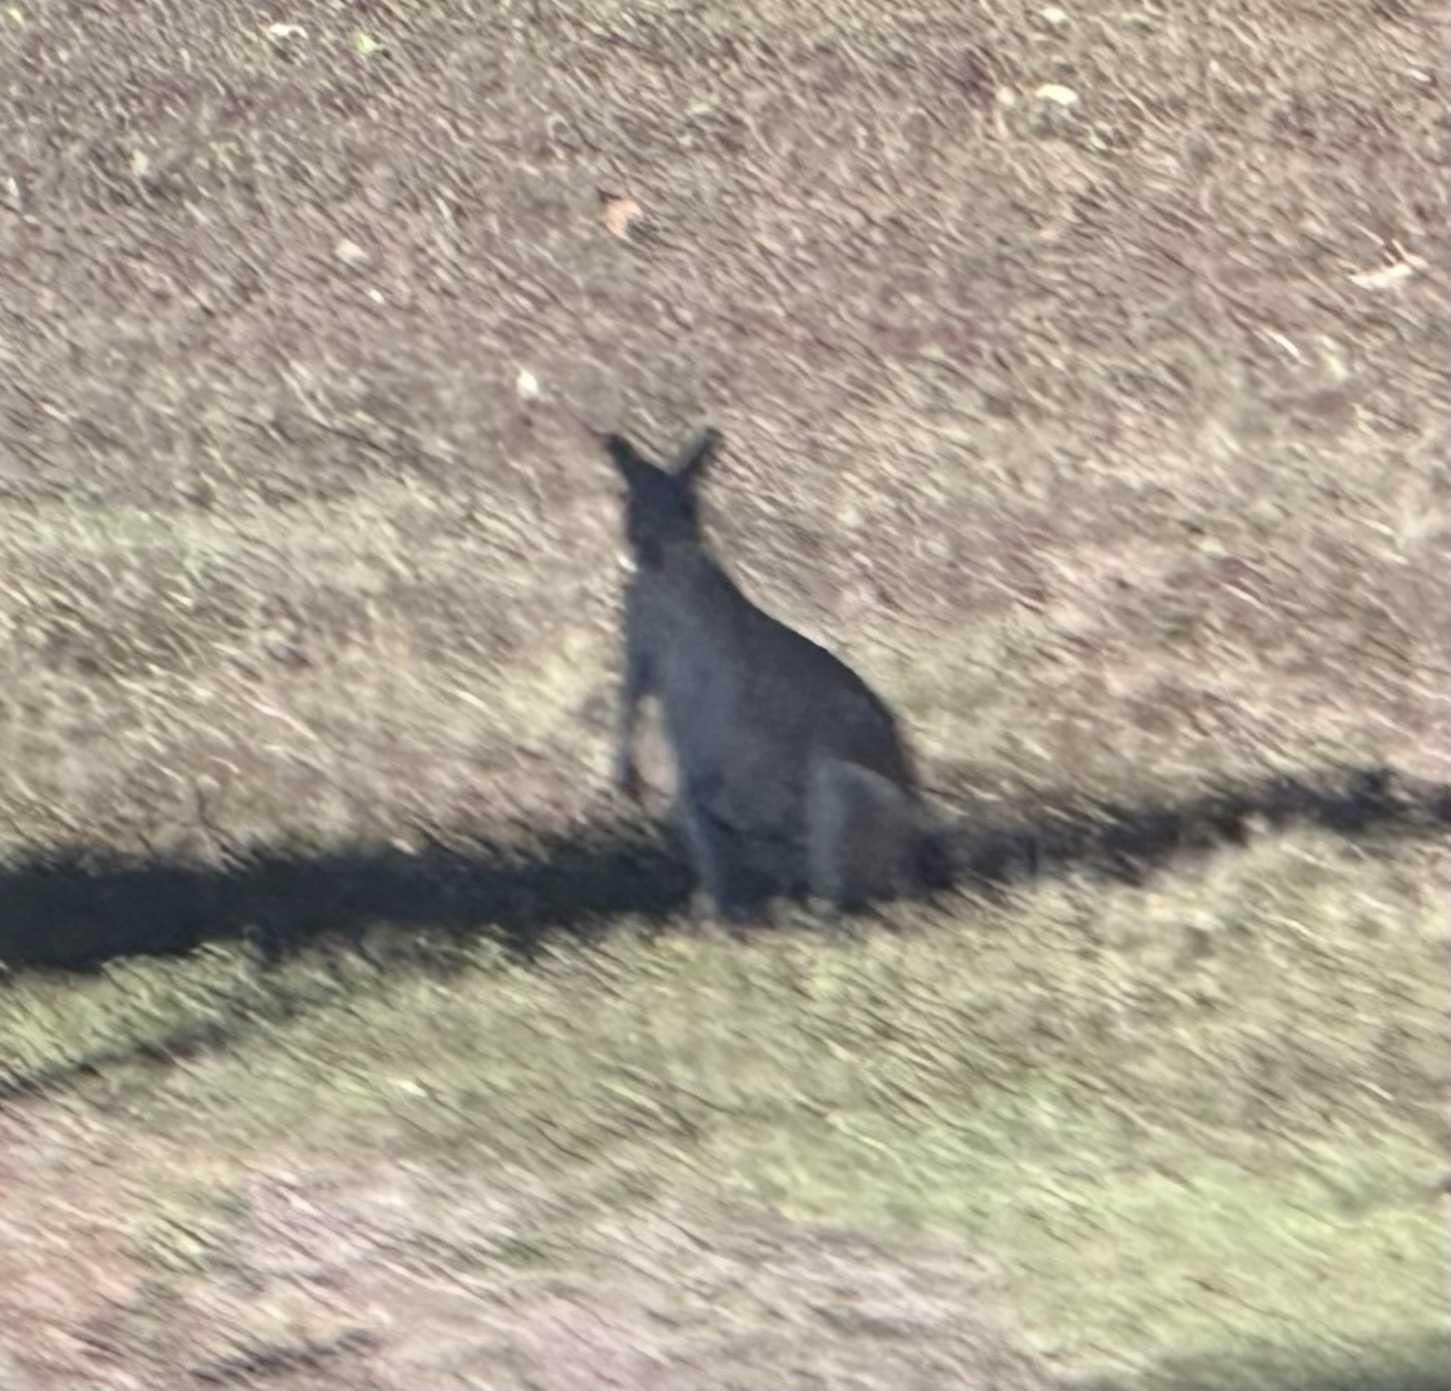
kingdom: Animalia
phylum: Chordata
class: Mammalia
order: Diprotodontia
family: Macropodidae
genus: Macropus
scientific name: Macropus agilis
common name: Agile wallaby
